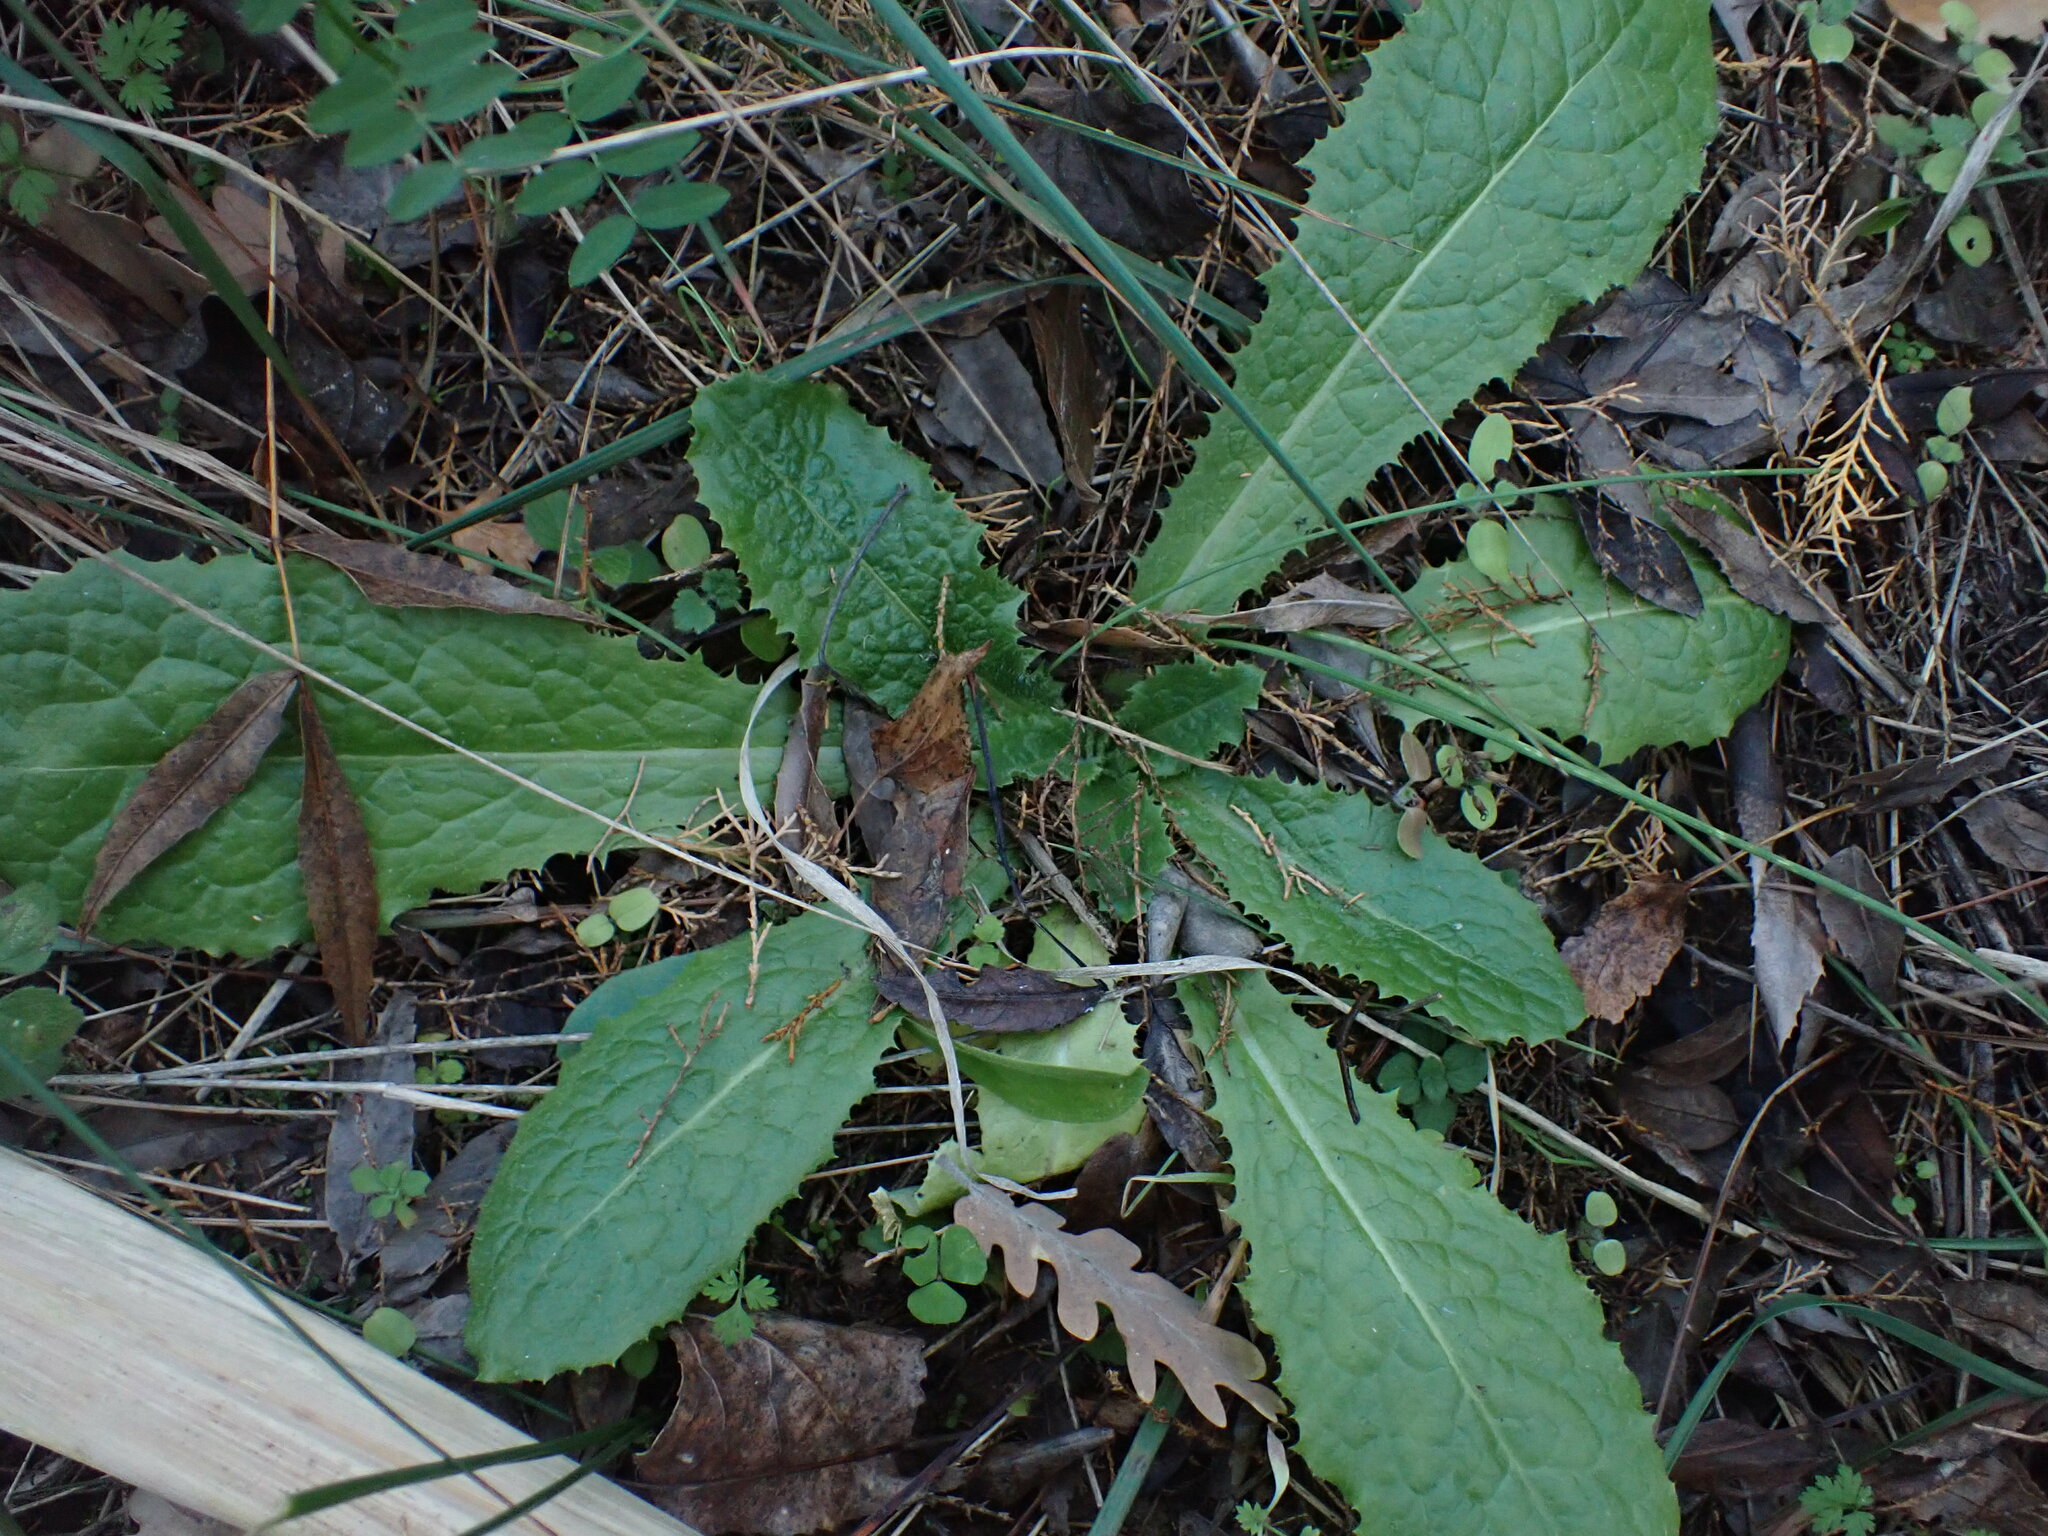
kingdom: Plantae
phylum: Tracheophyta
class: Magnoliopsida
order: Asterales
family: Asteraceae
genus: Lactuca
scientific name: Lactuca virosa
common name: Great lettuce
